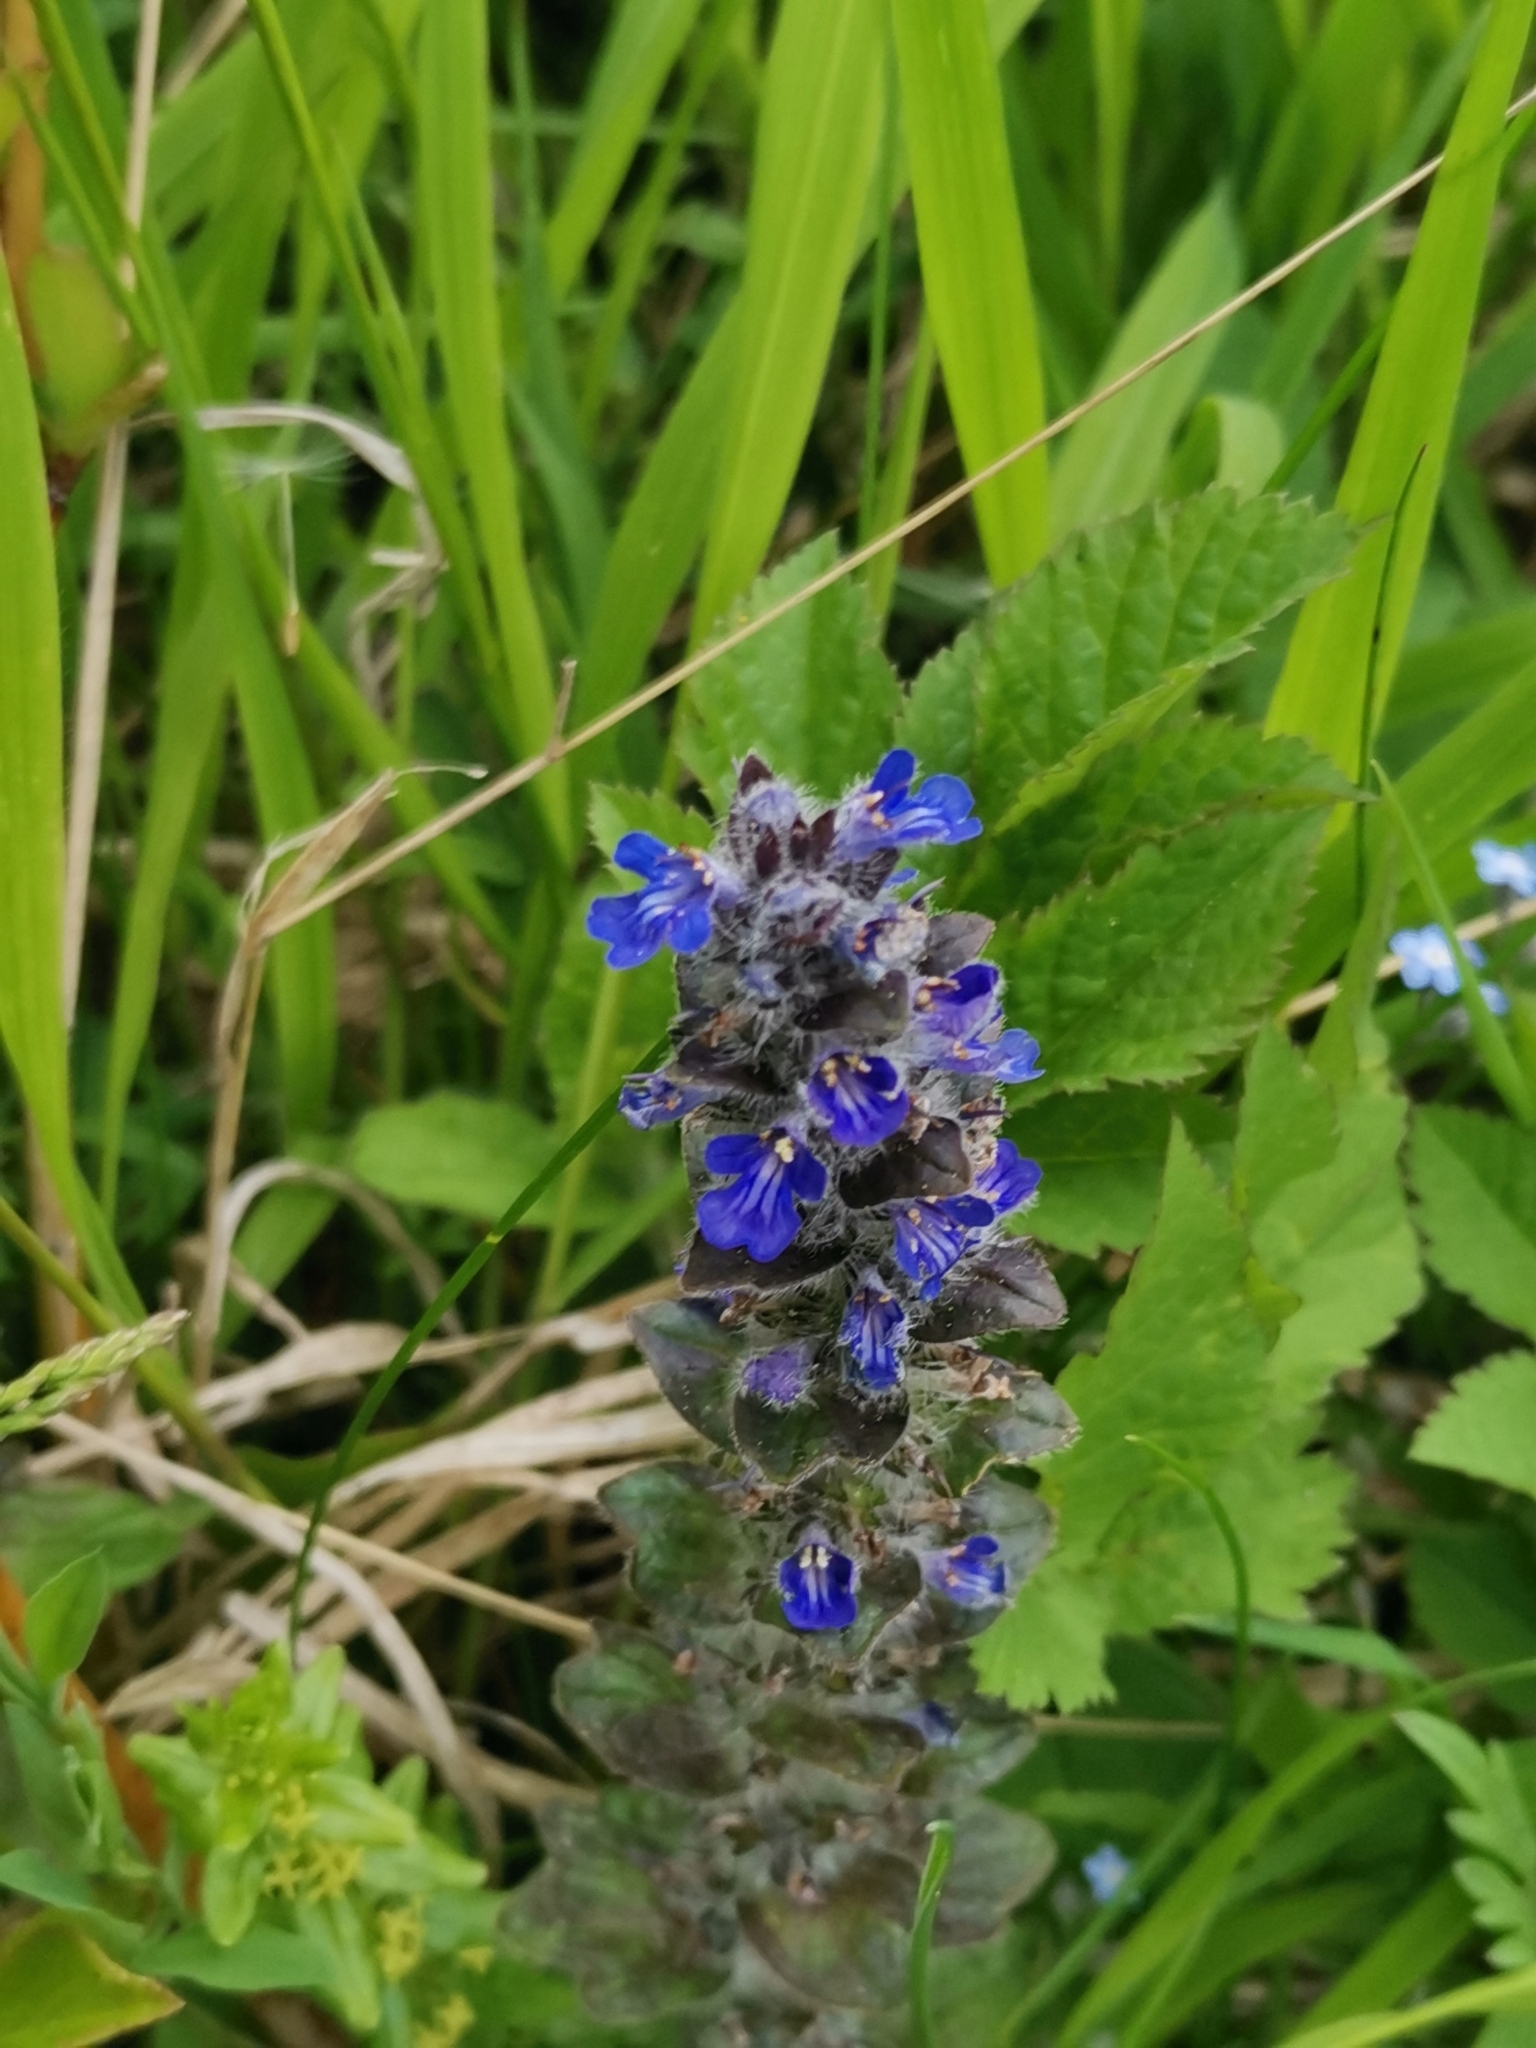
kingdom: Plantae
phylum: Tracheophyta
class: Magnoliopsida
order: Lamiales
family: Lamiaceae
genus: Ajuga
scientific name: Ajuga reptans
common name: Bugle
